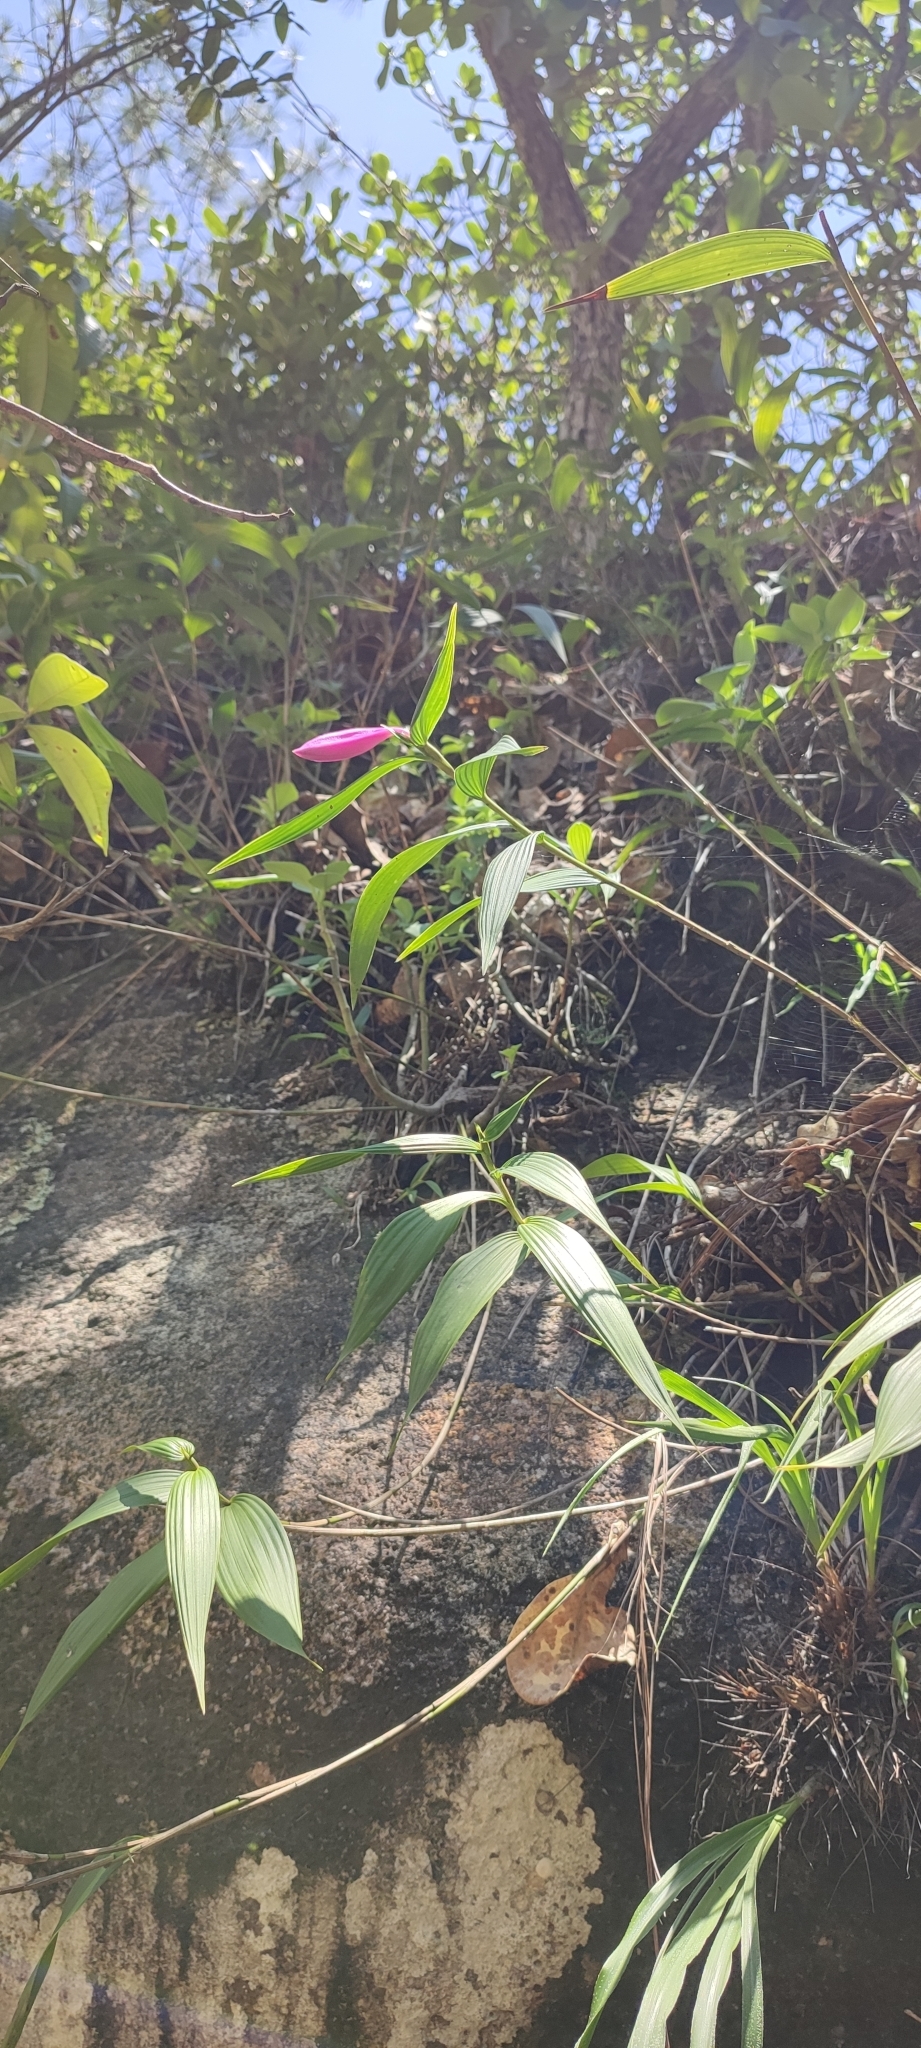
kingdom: Plantae
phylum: Tracheophyta
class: Liliopsida
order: Asparagales
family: Orchidaceae
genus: Sobralia
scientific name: Sobralia galeottiana
